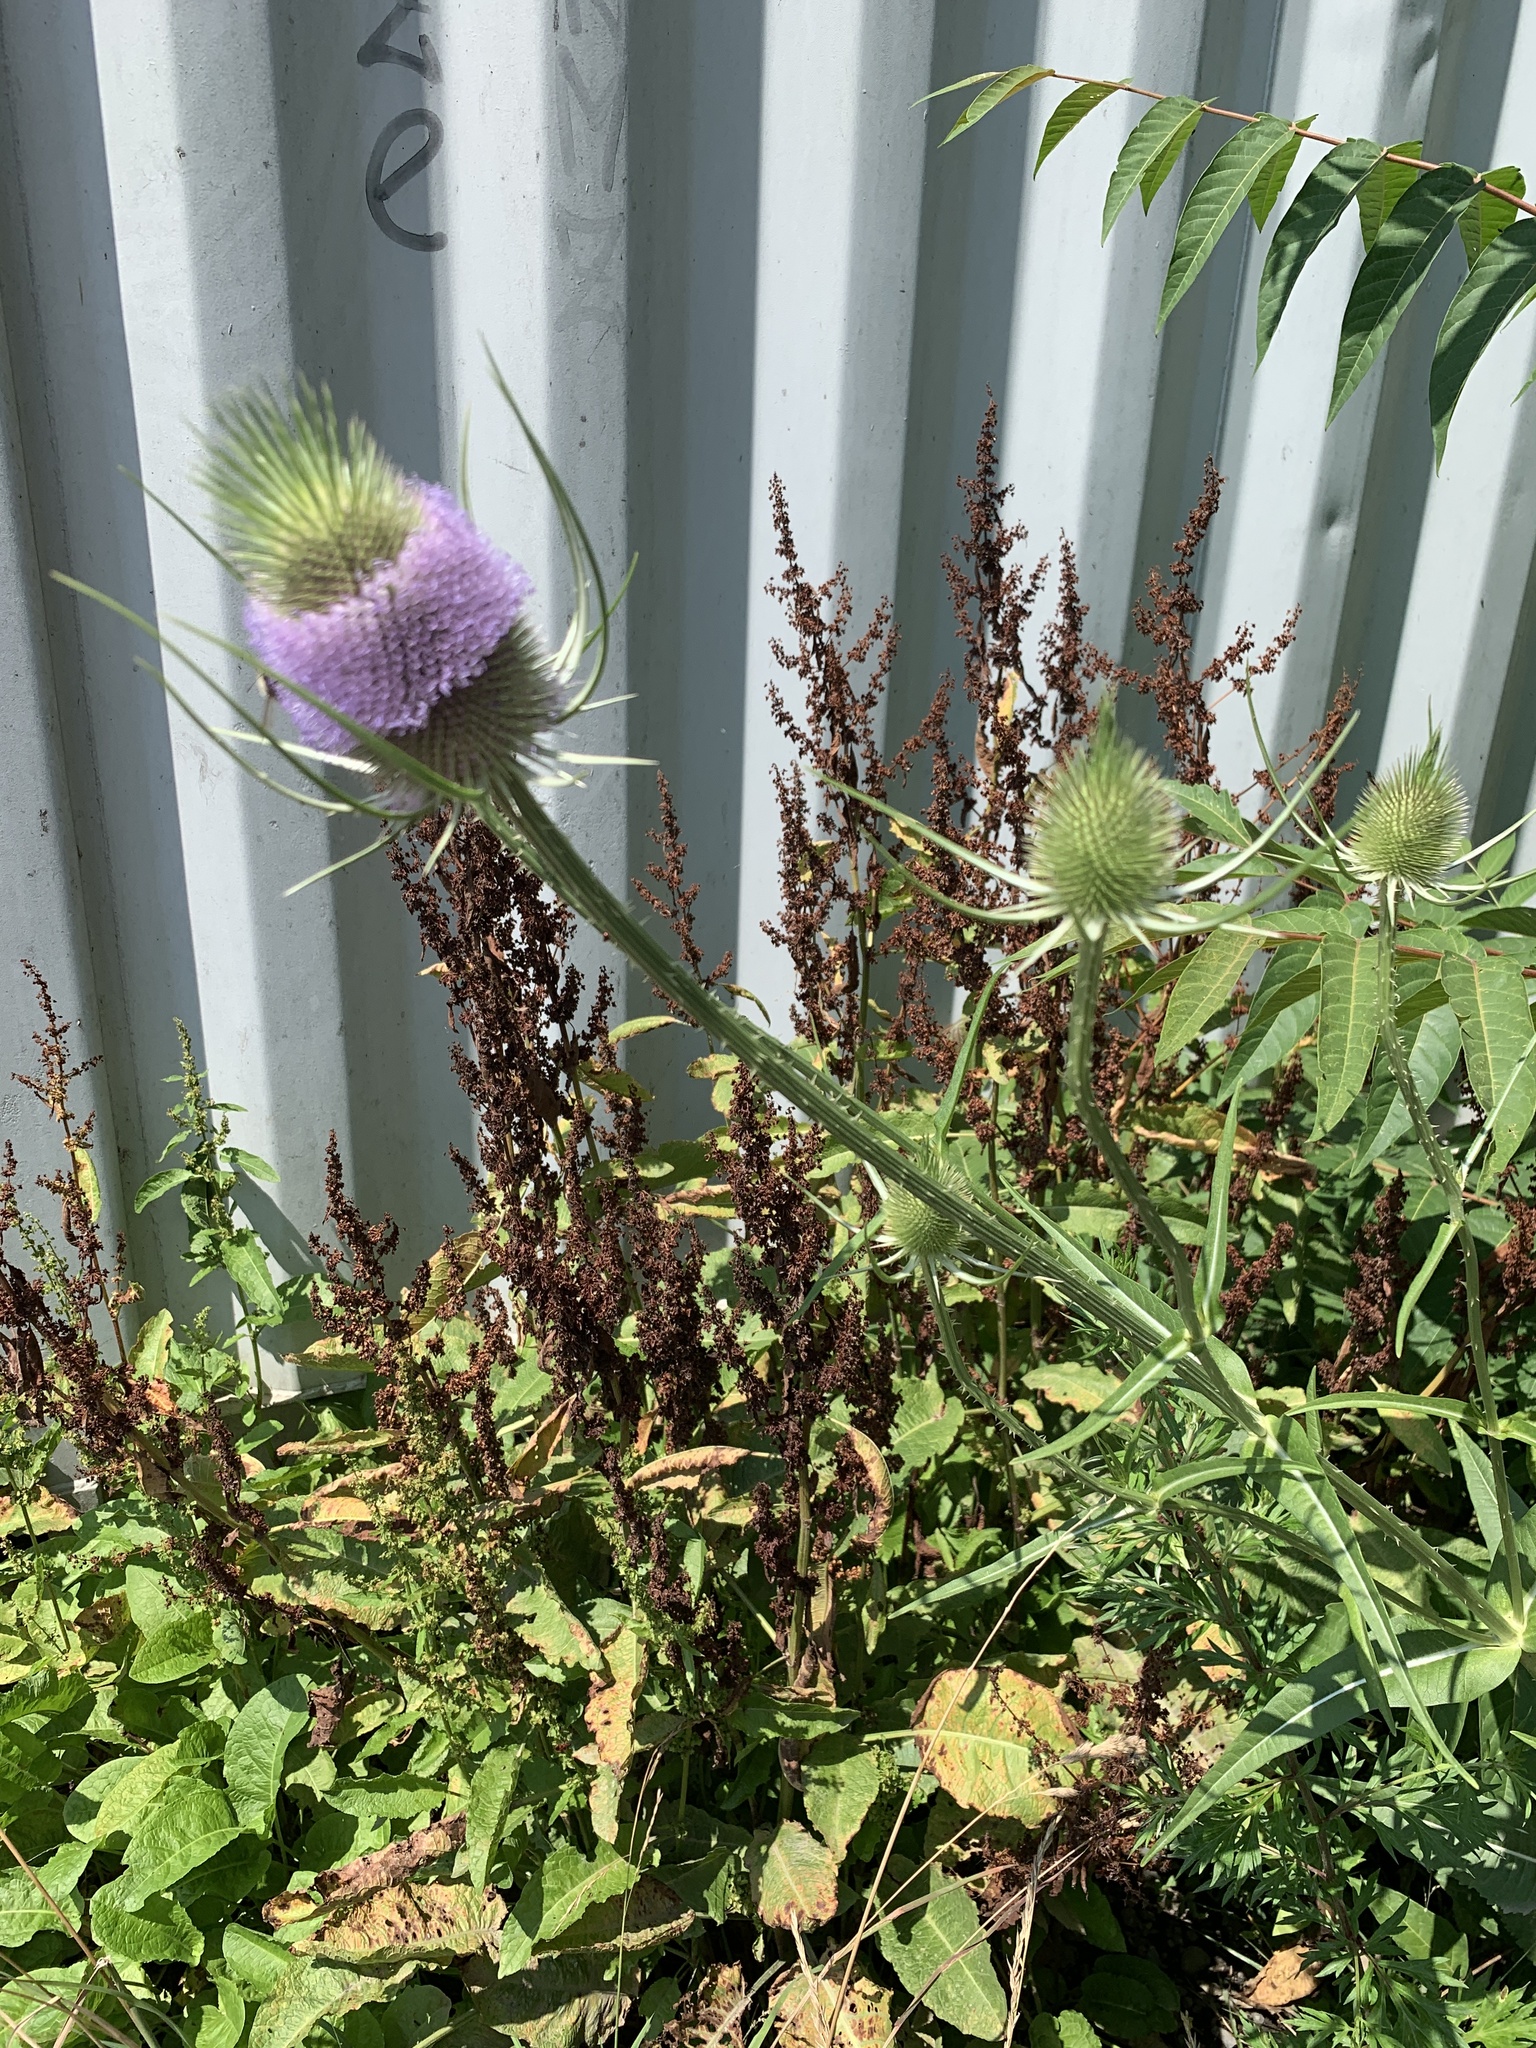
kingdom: Plantae
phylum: Tracheophyta
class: Magnoliopsida
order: Dipsacales
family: Caprifoliaceae
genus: Dipsacus
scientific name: Dipsacus fullonum
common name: Teasel
